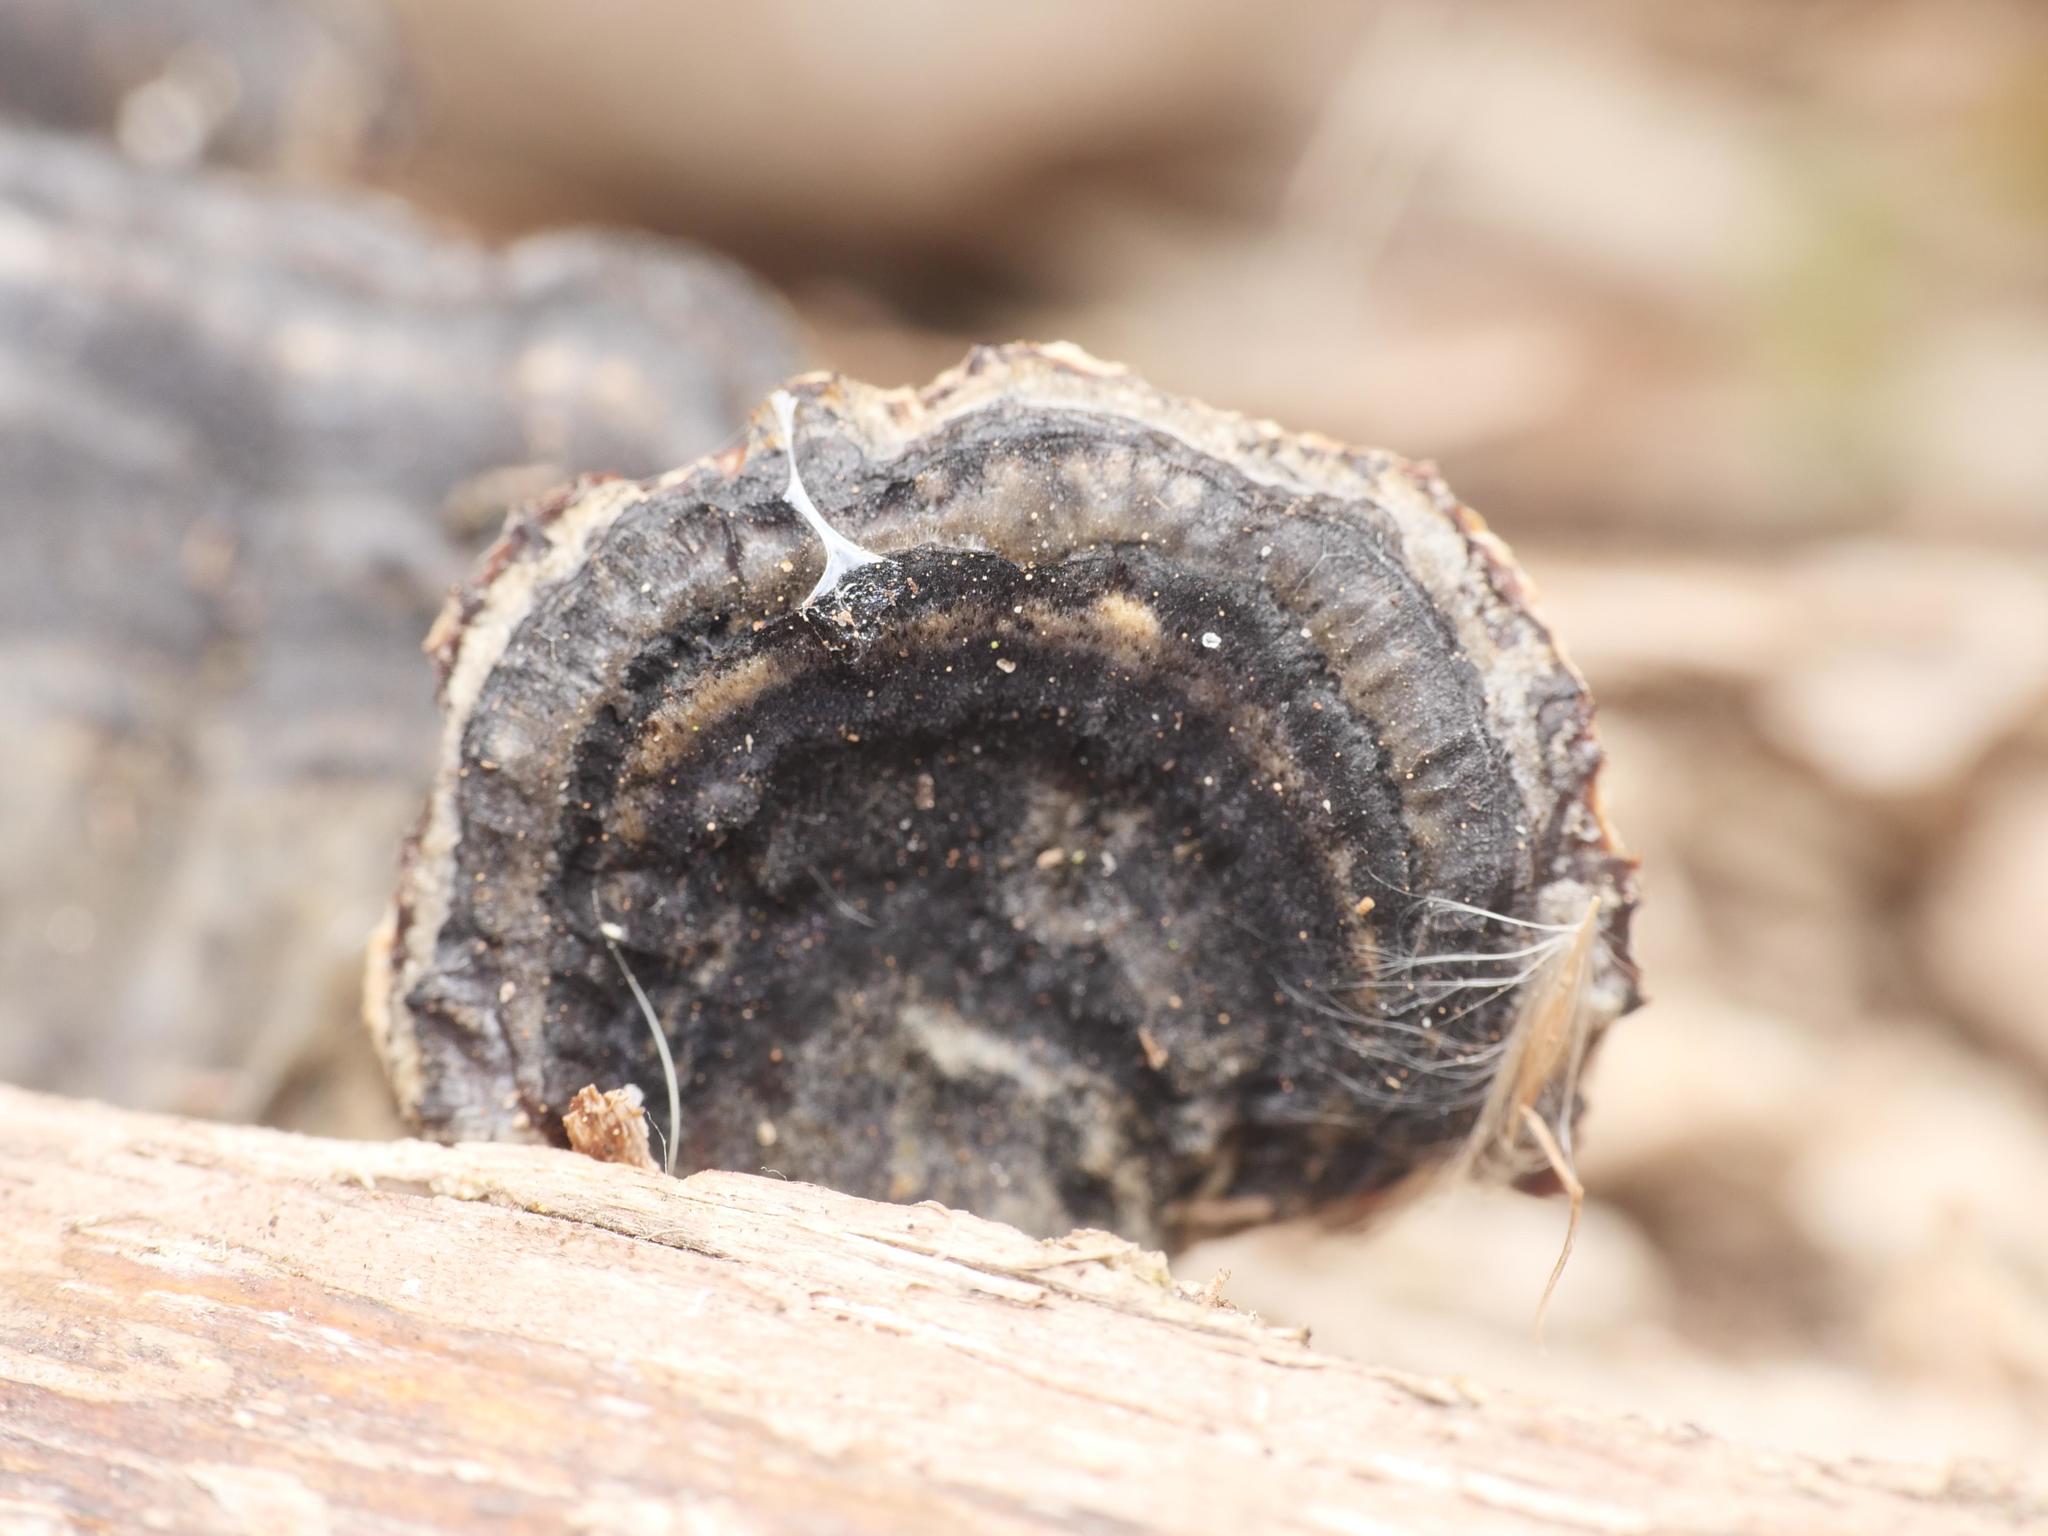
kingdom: Fungi
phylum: Basidiomycota
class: Agaricomycetes
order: Polyporales
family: Polyporaceae
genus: Trametes
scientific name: Trametes versicolor
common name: Turkeytail
